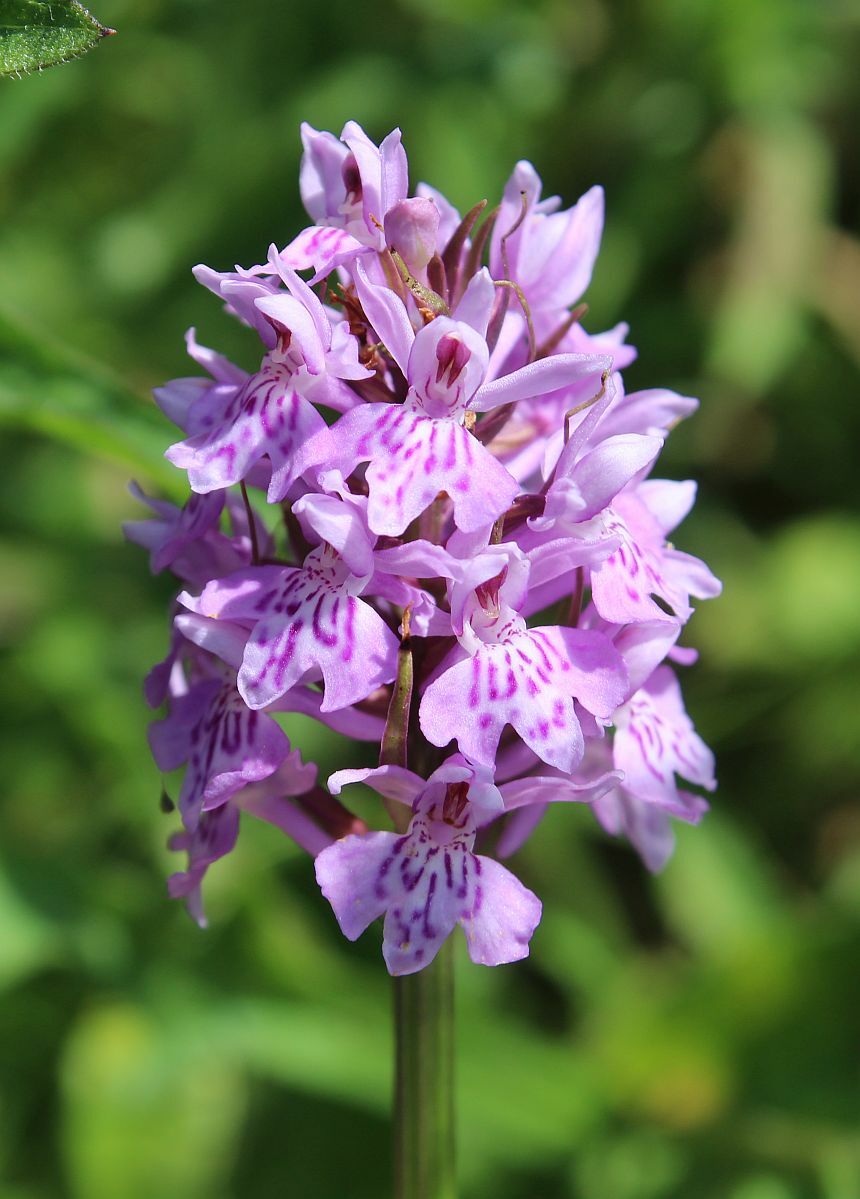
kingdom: Plantae
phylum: Tracheophyta
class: Liliopsida
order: Asparagales
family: Orchidaceae
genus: Dactylorhiza
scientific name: Dactylorhiza maculata
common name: Heath spotted-orchid
